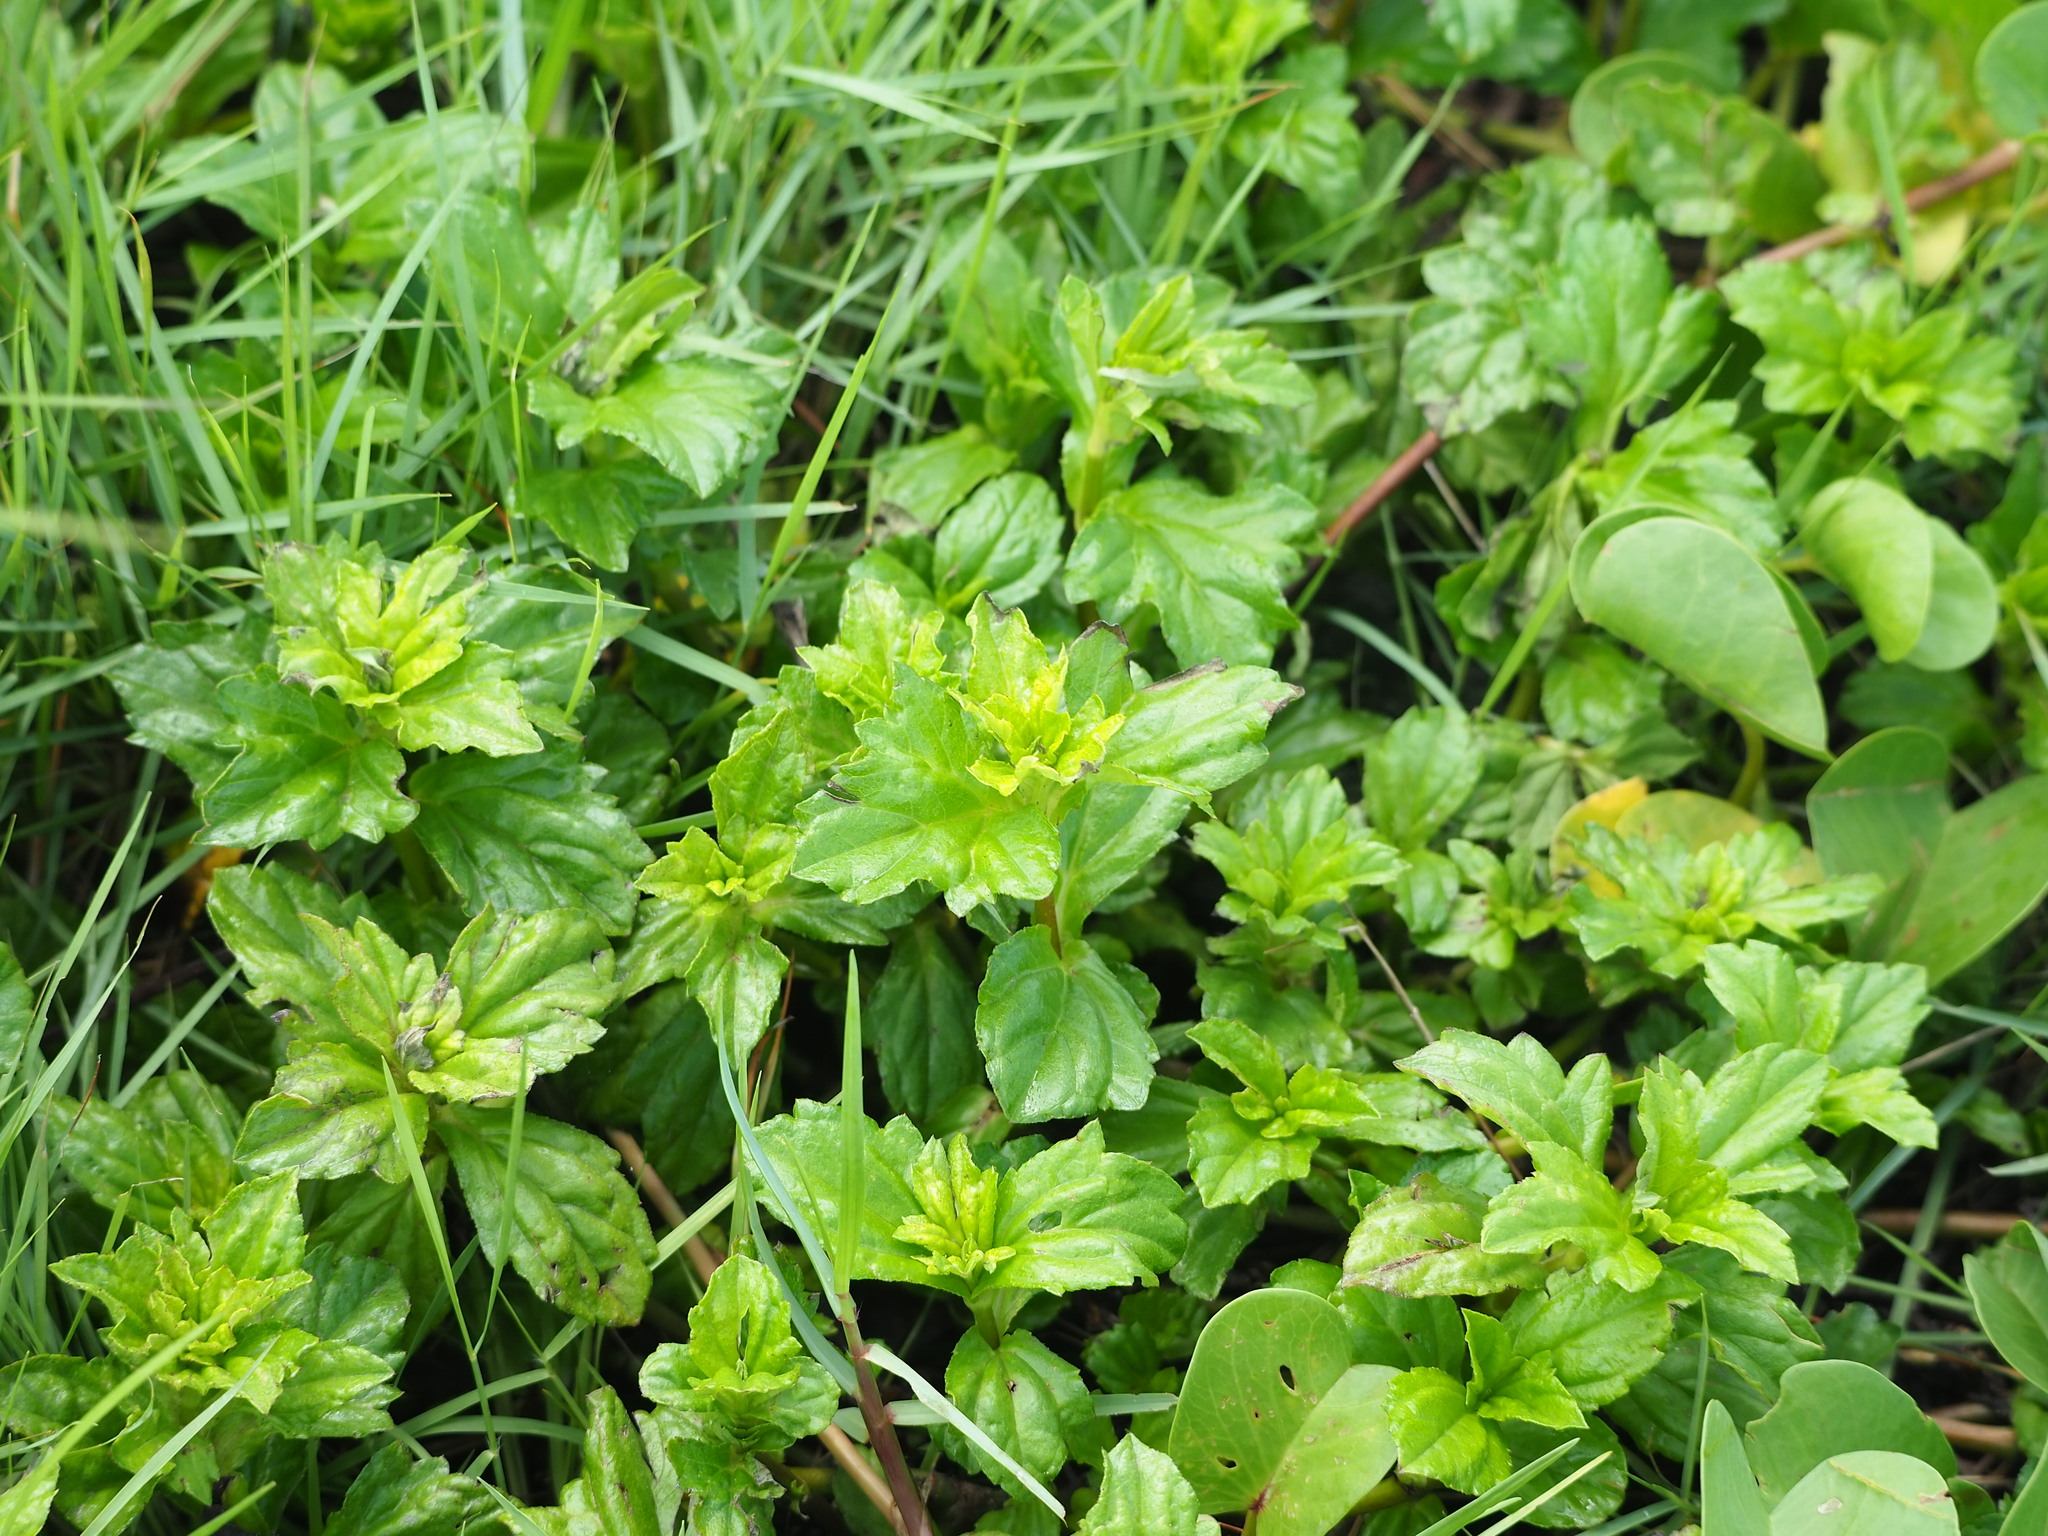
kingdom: Plantae
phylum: Tracheophyta
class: Magnoliopsida
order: Asterales
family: Asteraceae
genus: Sphagneticola
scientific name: Sphagneticola trilobata
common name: Bay biscayne creeping-oxeye
